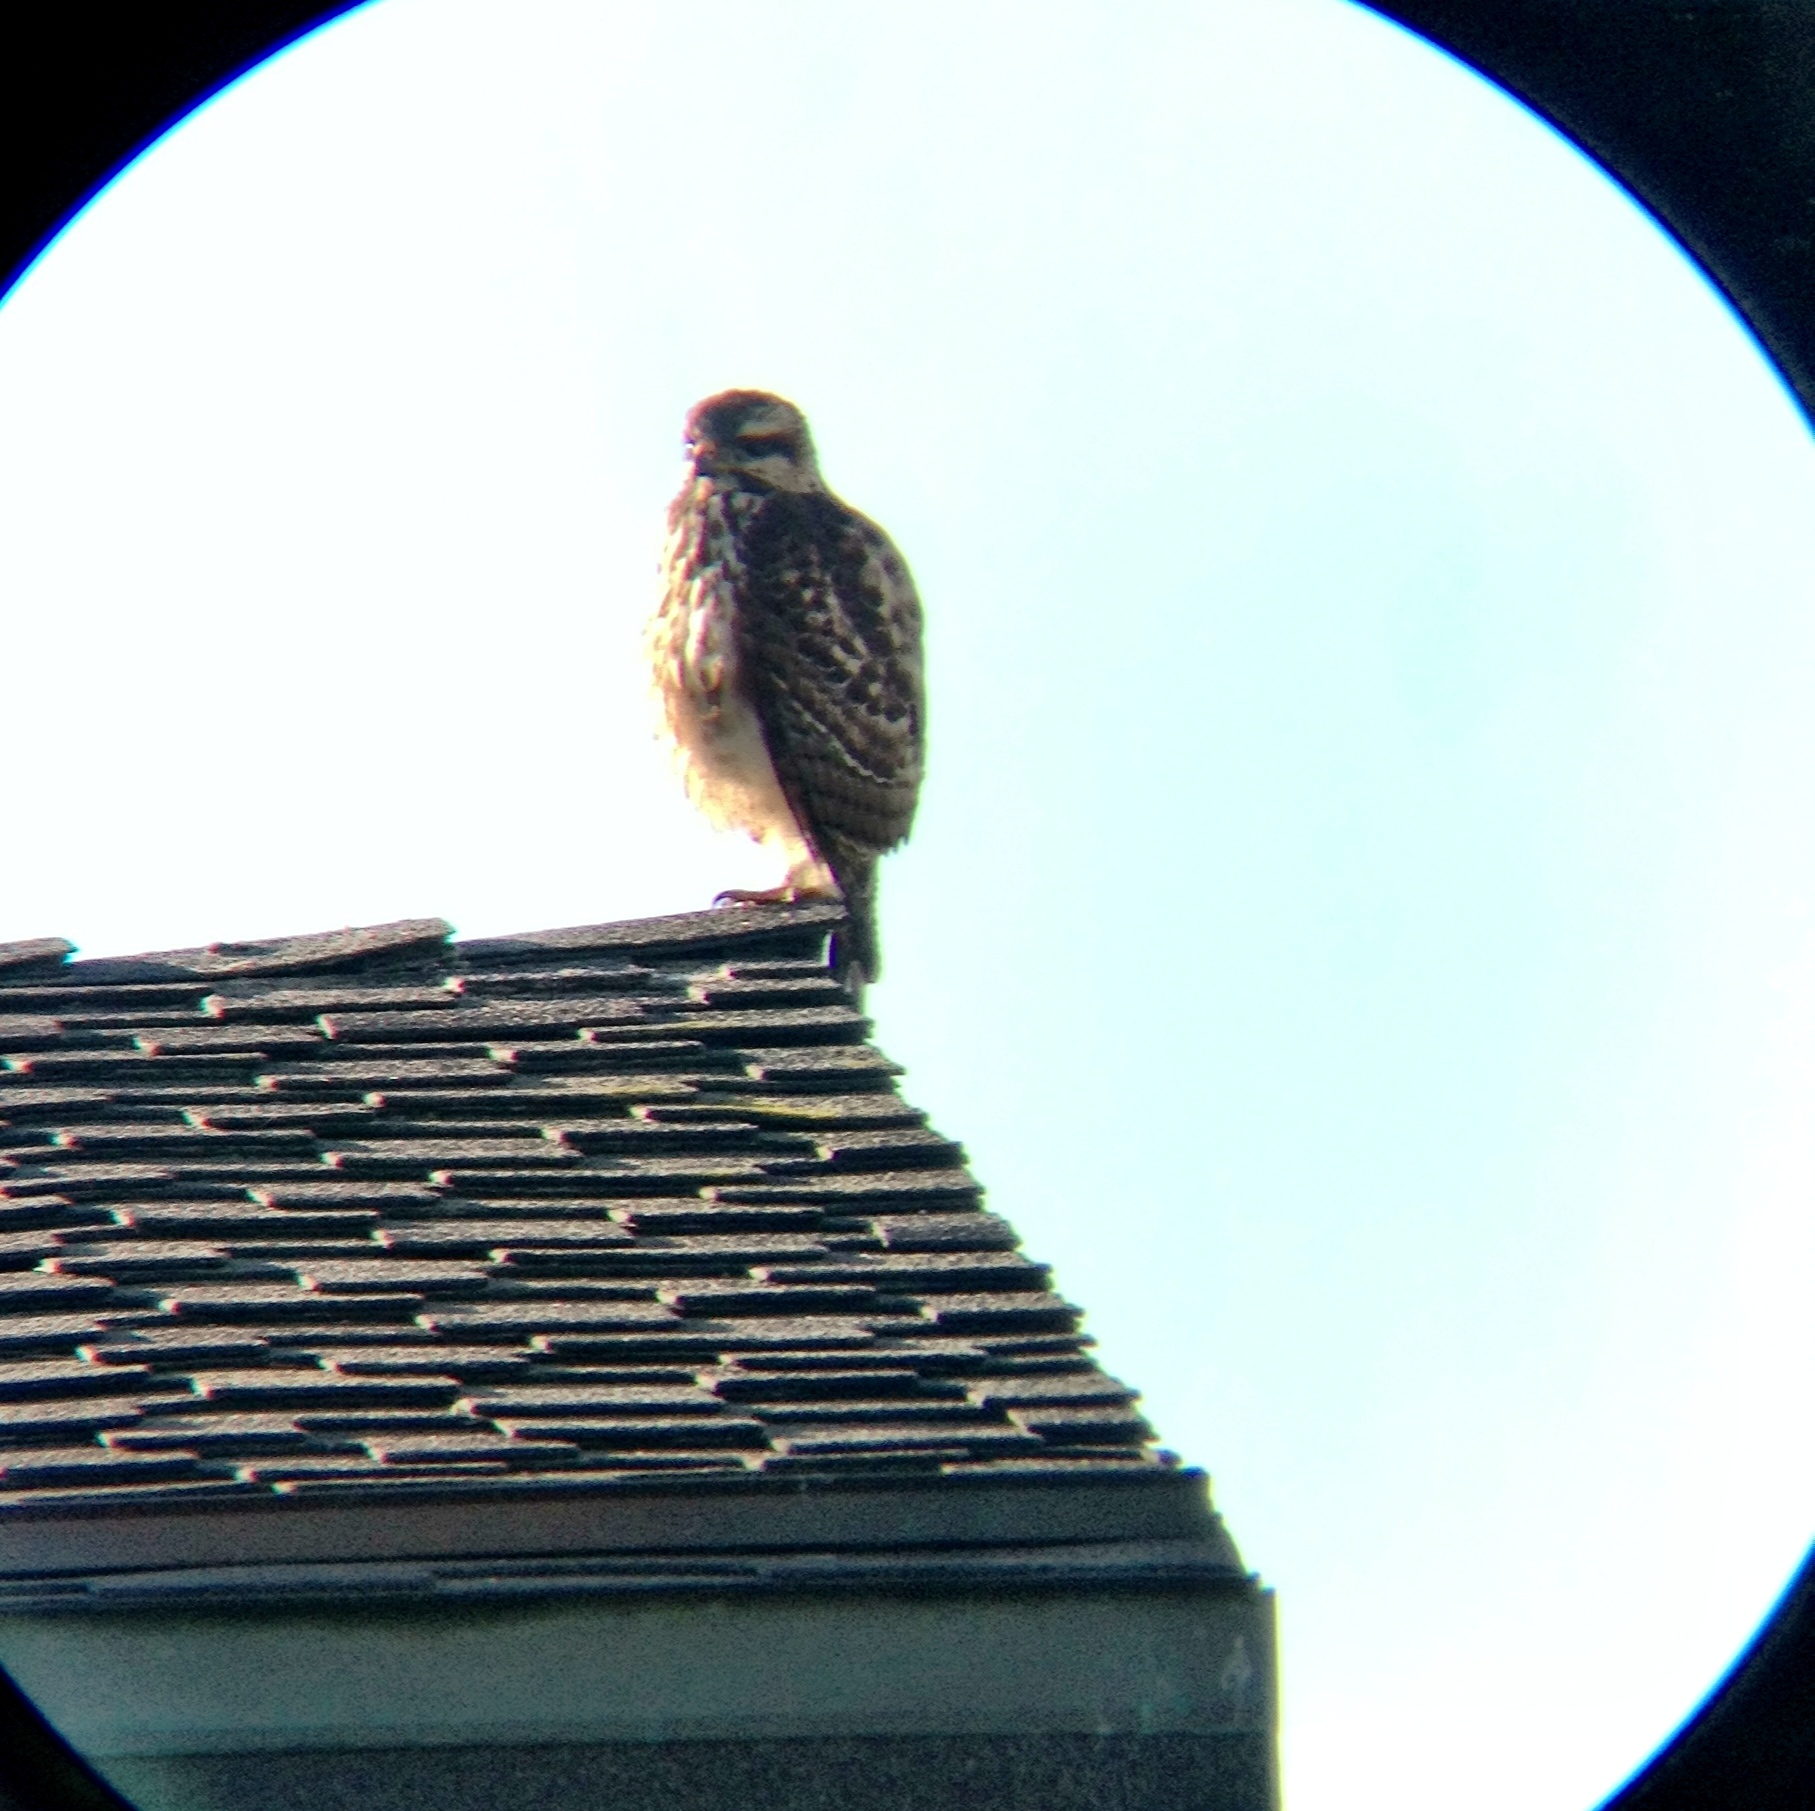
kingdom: Animalia
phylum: Chordata
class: Aves
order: Accipitriformes
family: Accipitridae
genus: Buteo
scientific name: Buteo nitidus
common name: Grey-lined hawk
